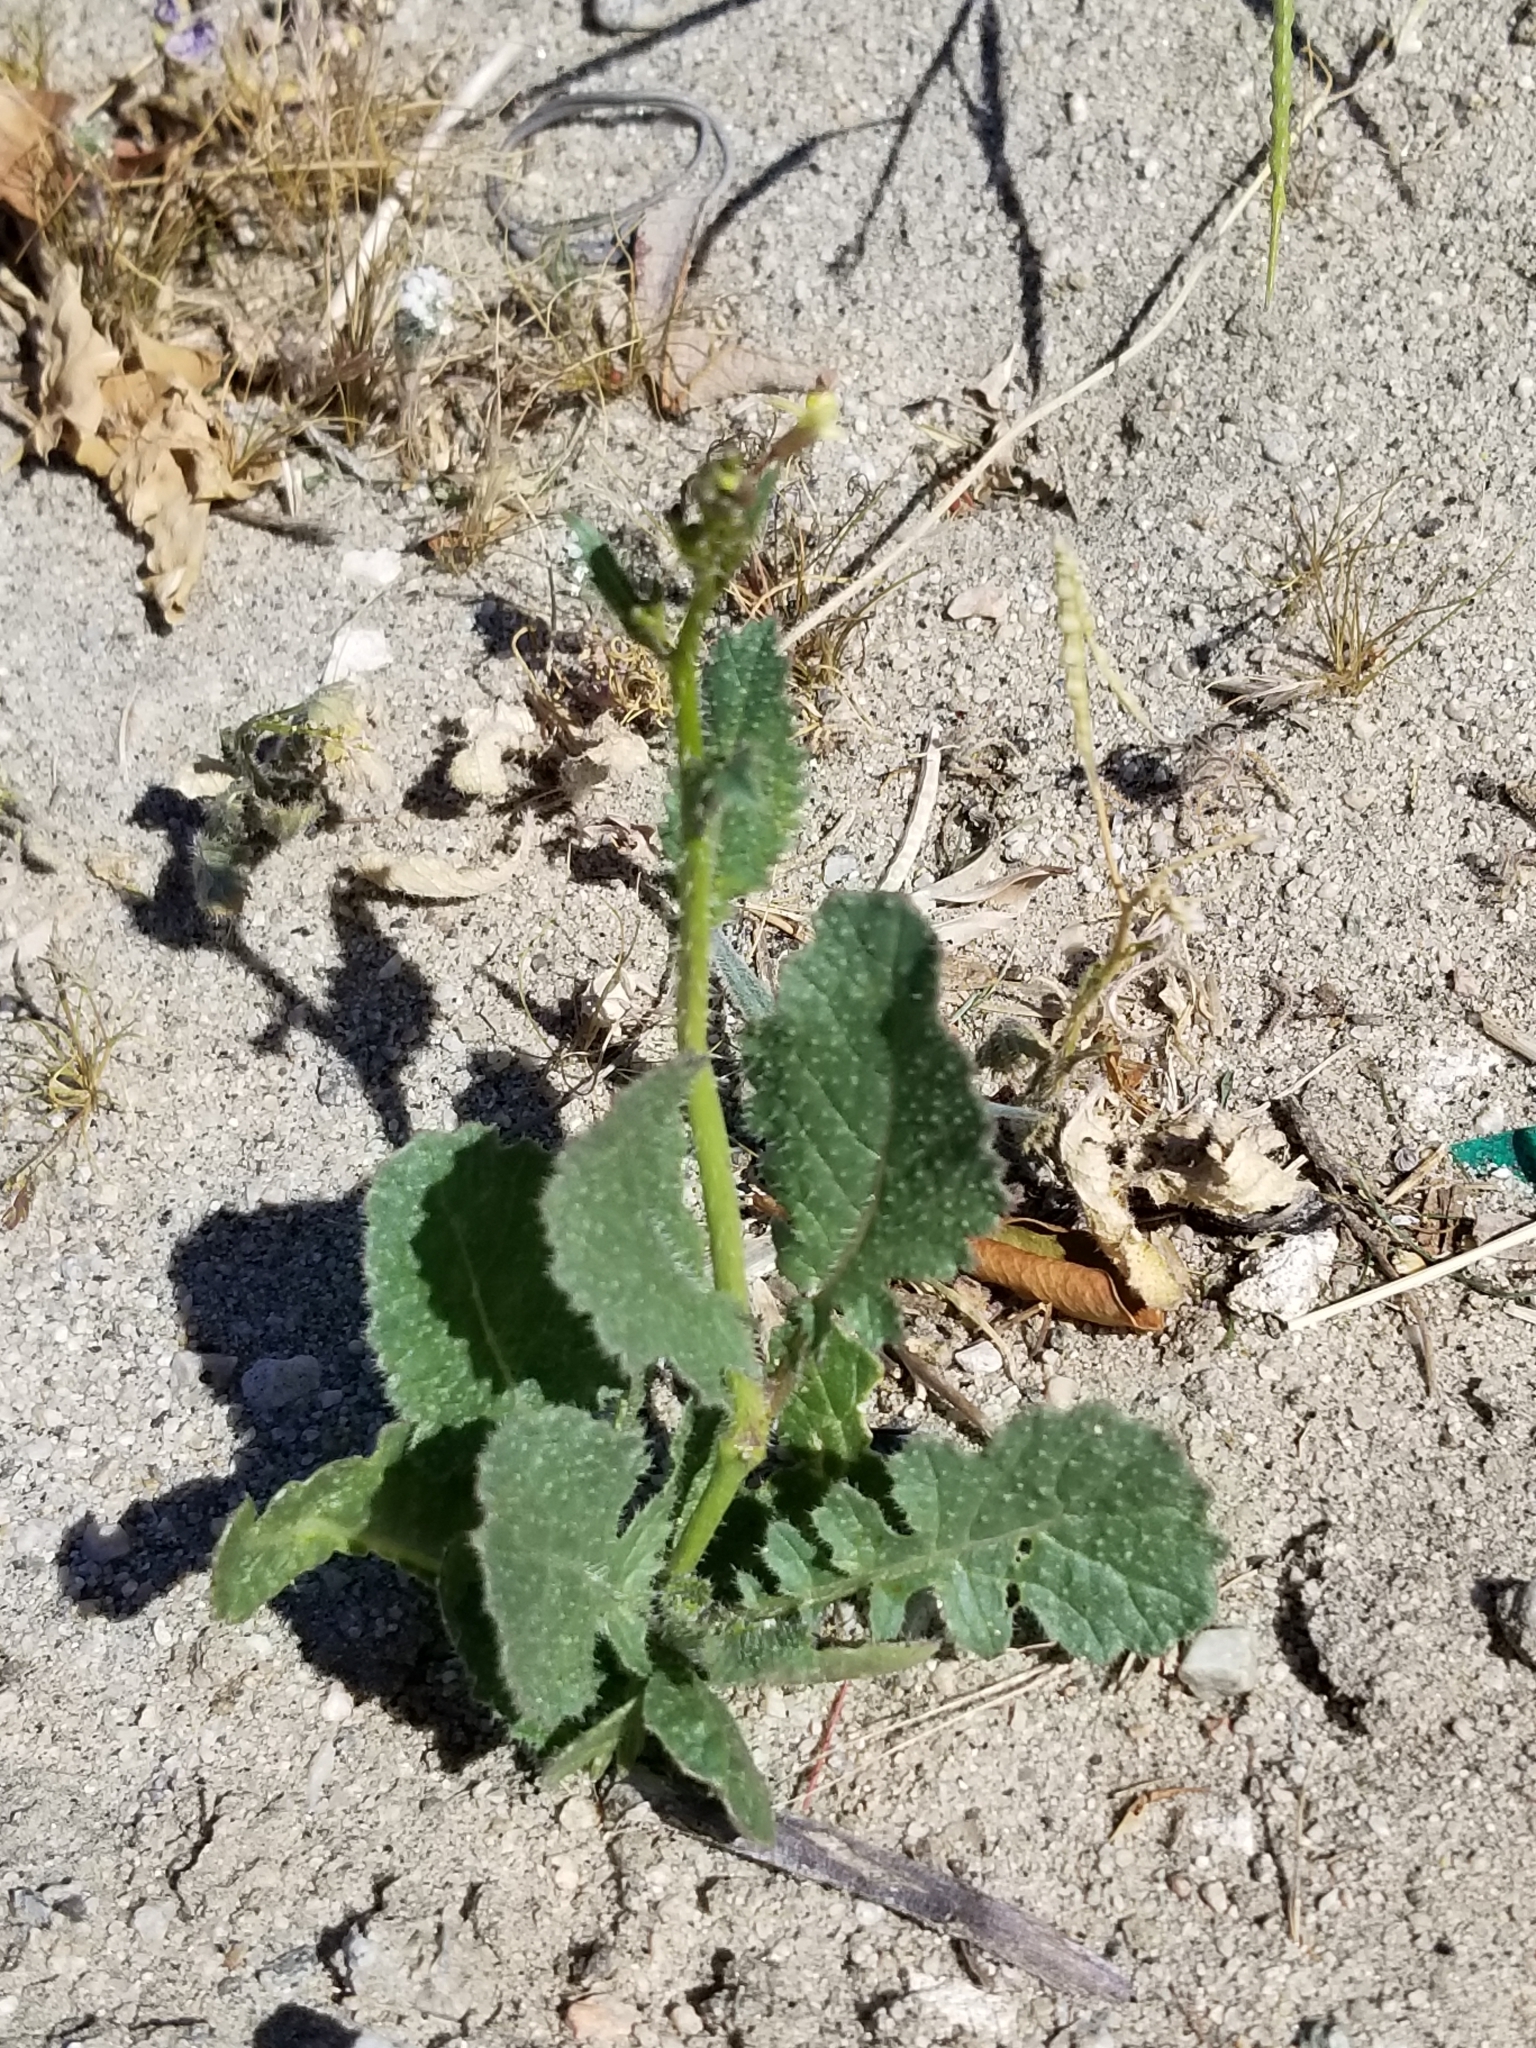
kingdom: Plantae
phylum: Tracheophyta
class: Magnoliopsida
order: Brassicales
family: Brassicaceae
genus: Brassica
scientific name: Brassica tournefortii
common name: Pale cabbage
